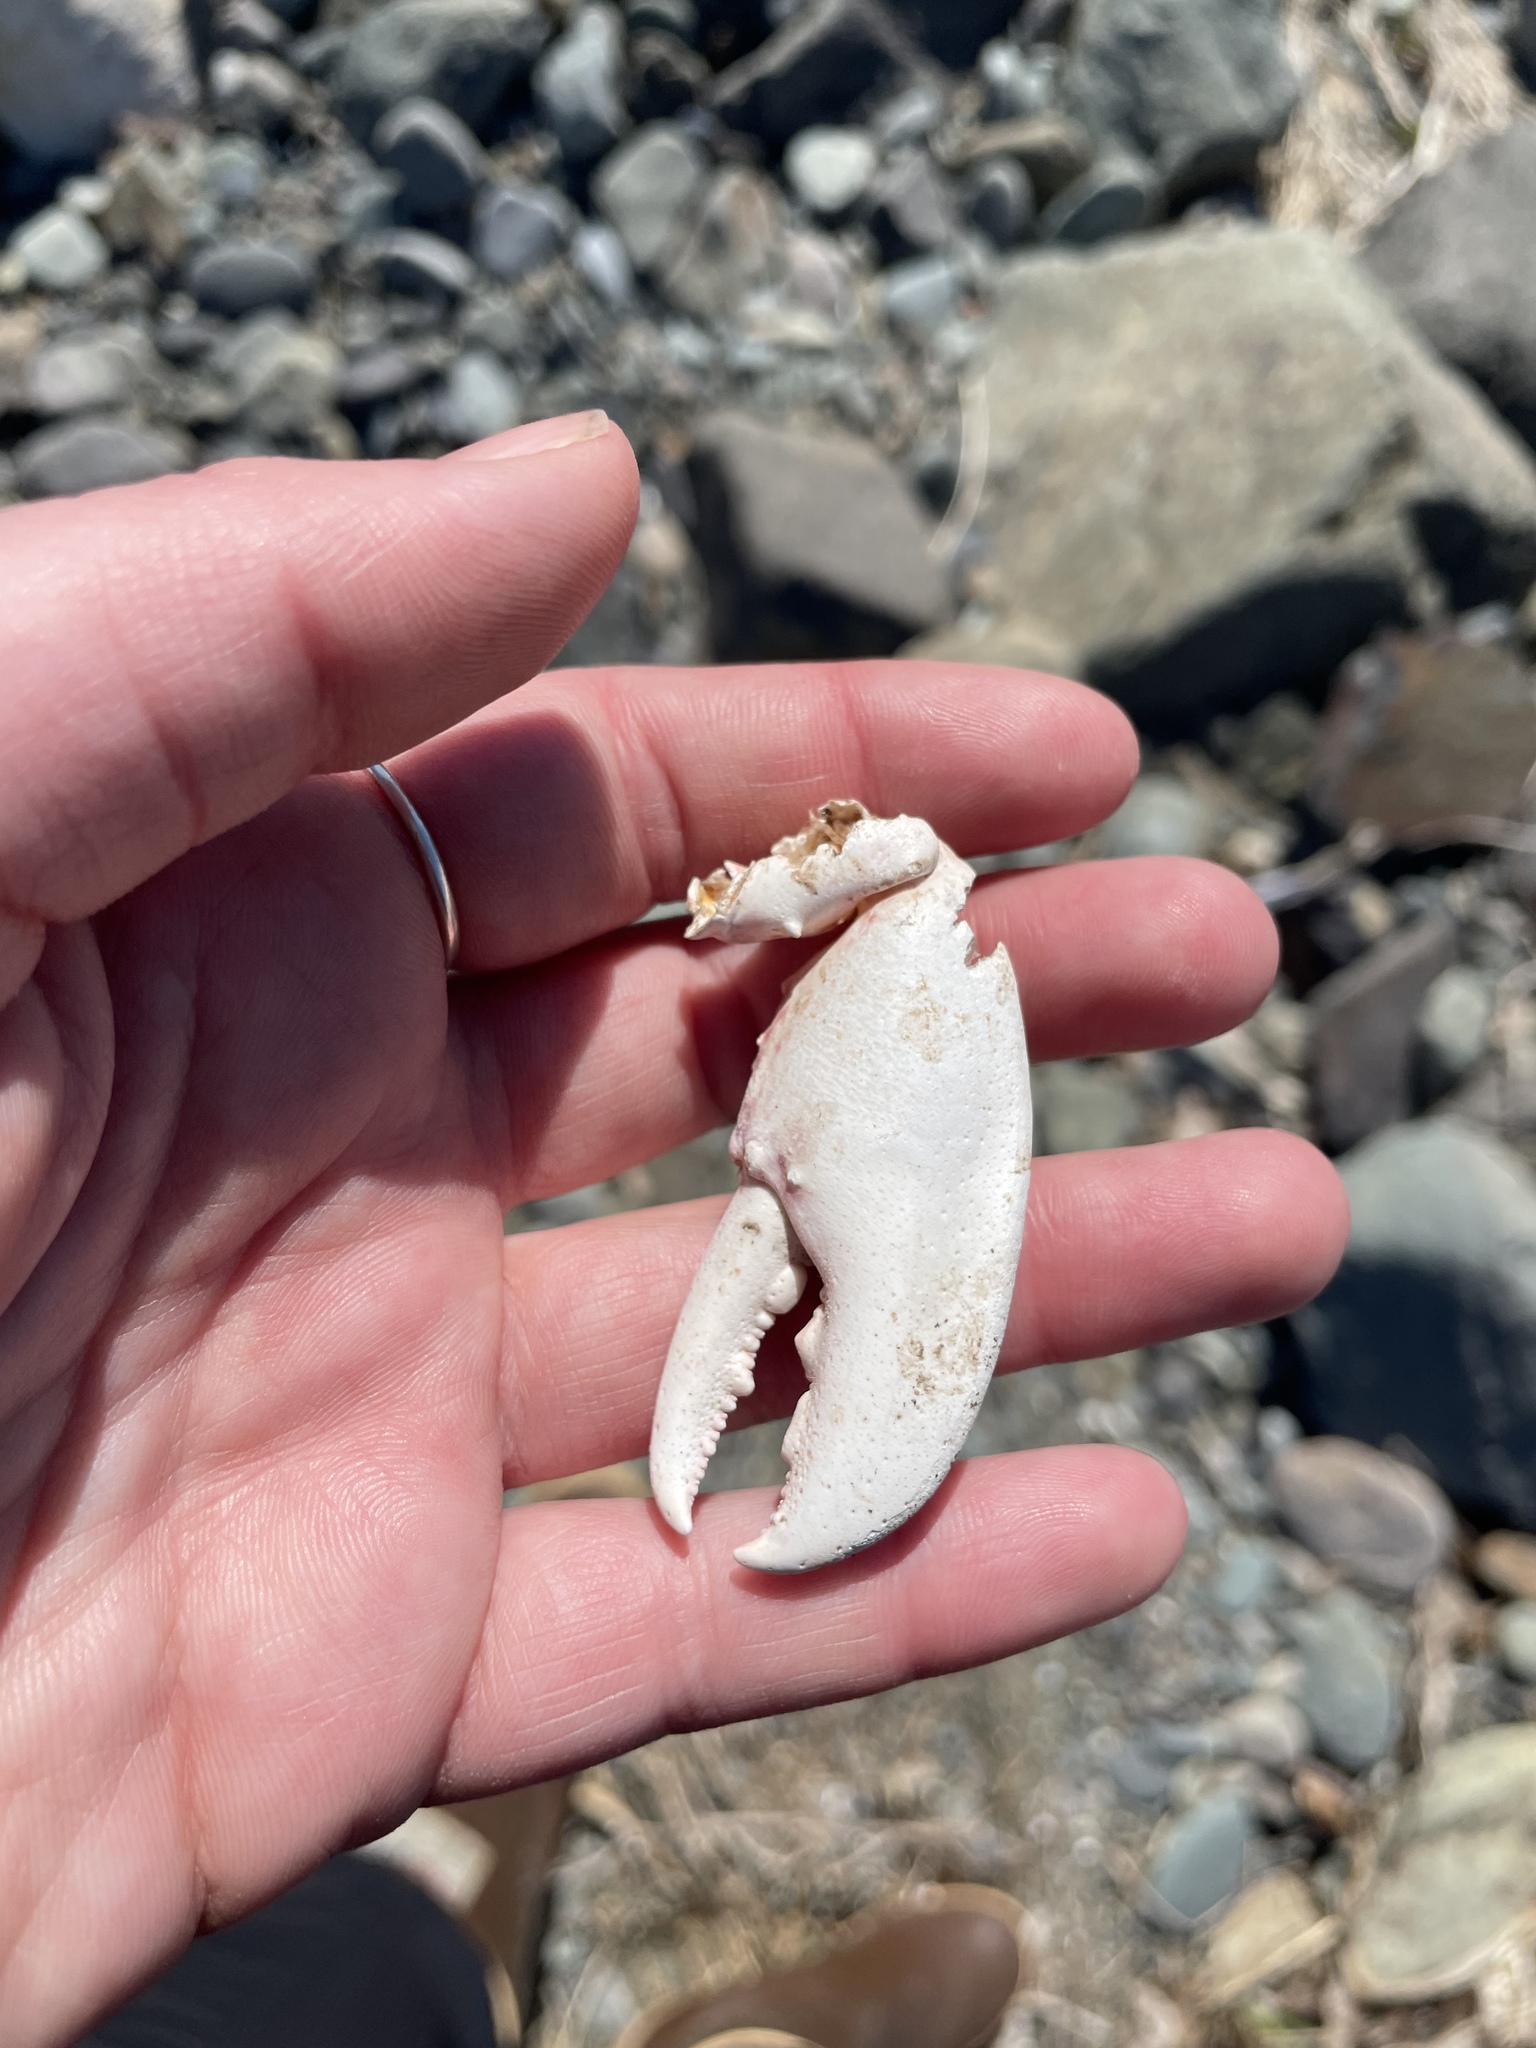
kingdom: Animalia
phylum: Arthropoda
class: Malacostraca
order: Decapoda
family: Nephropidae
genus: Homarus
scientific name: Homarus americanus
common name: American lobster
